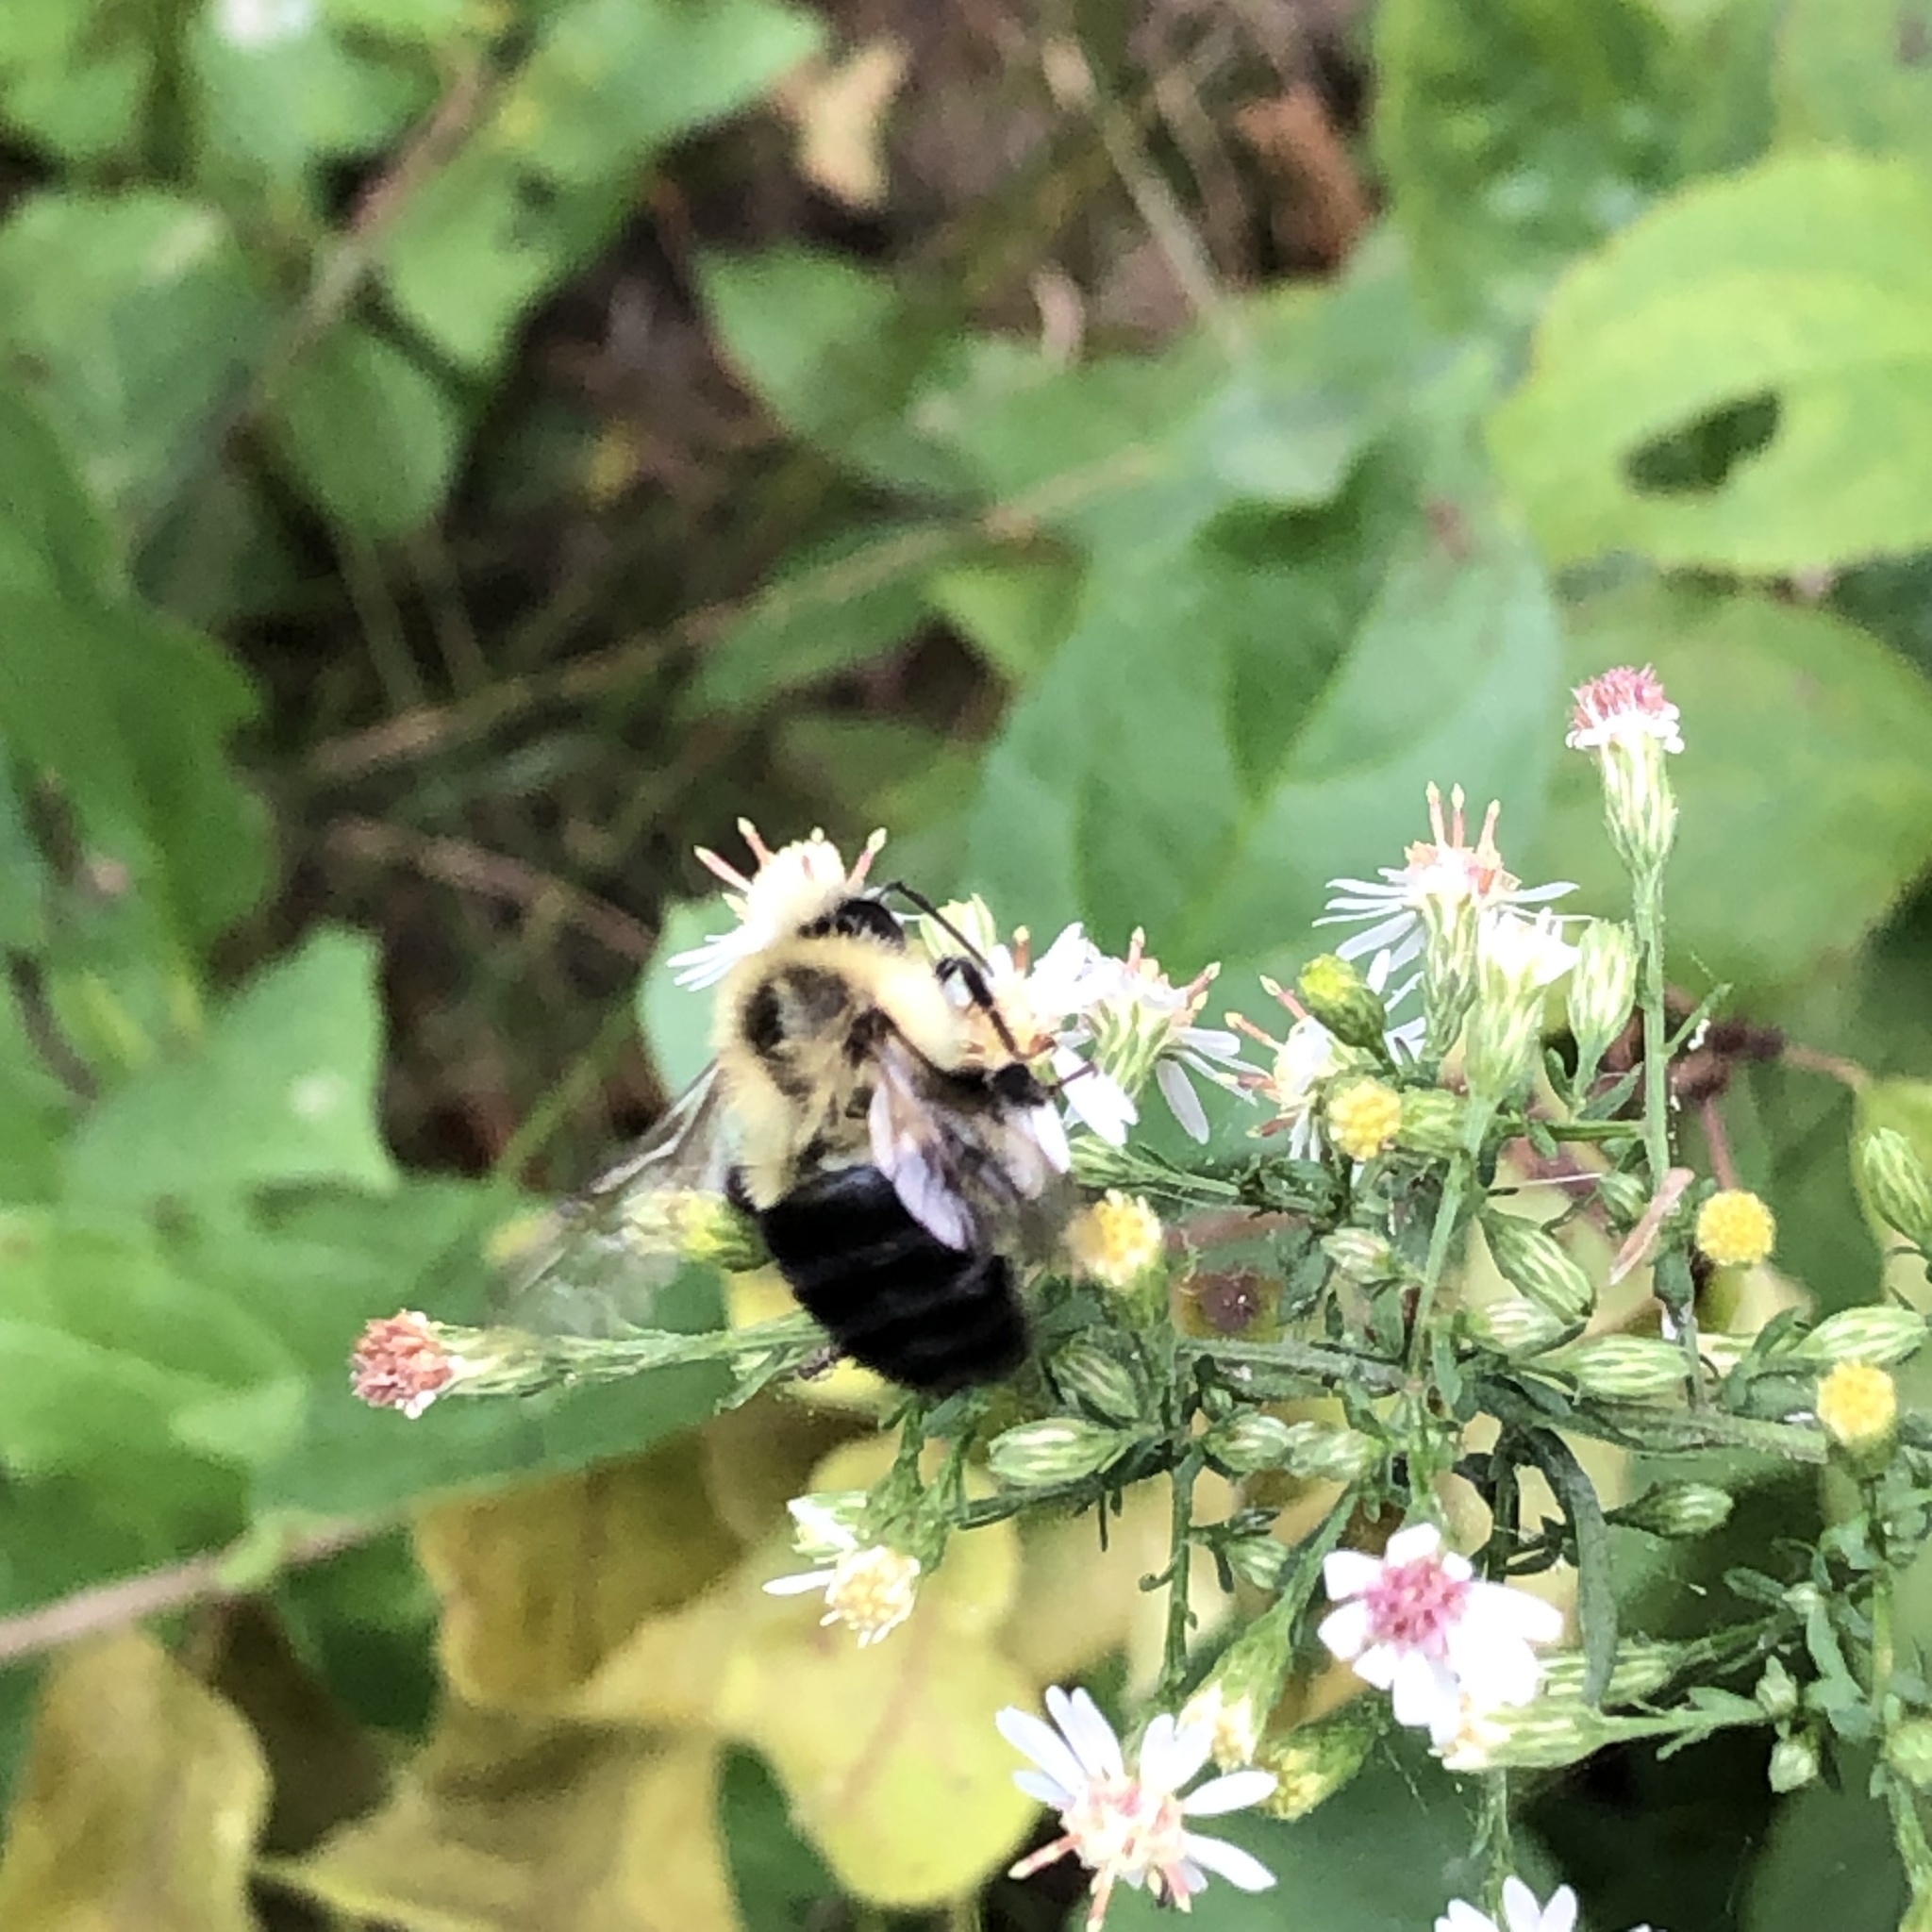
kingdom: Animalia
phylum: Arthropoda
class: Insecta
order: Hymenoptera
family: Apidae
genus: Bombus
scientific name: Bombus impatiens
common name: Common eastern bumble bee
